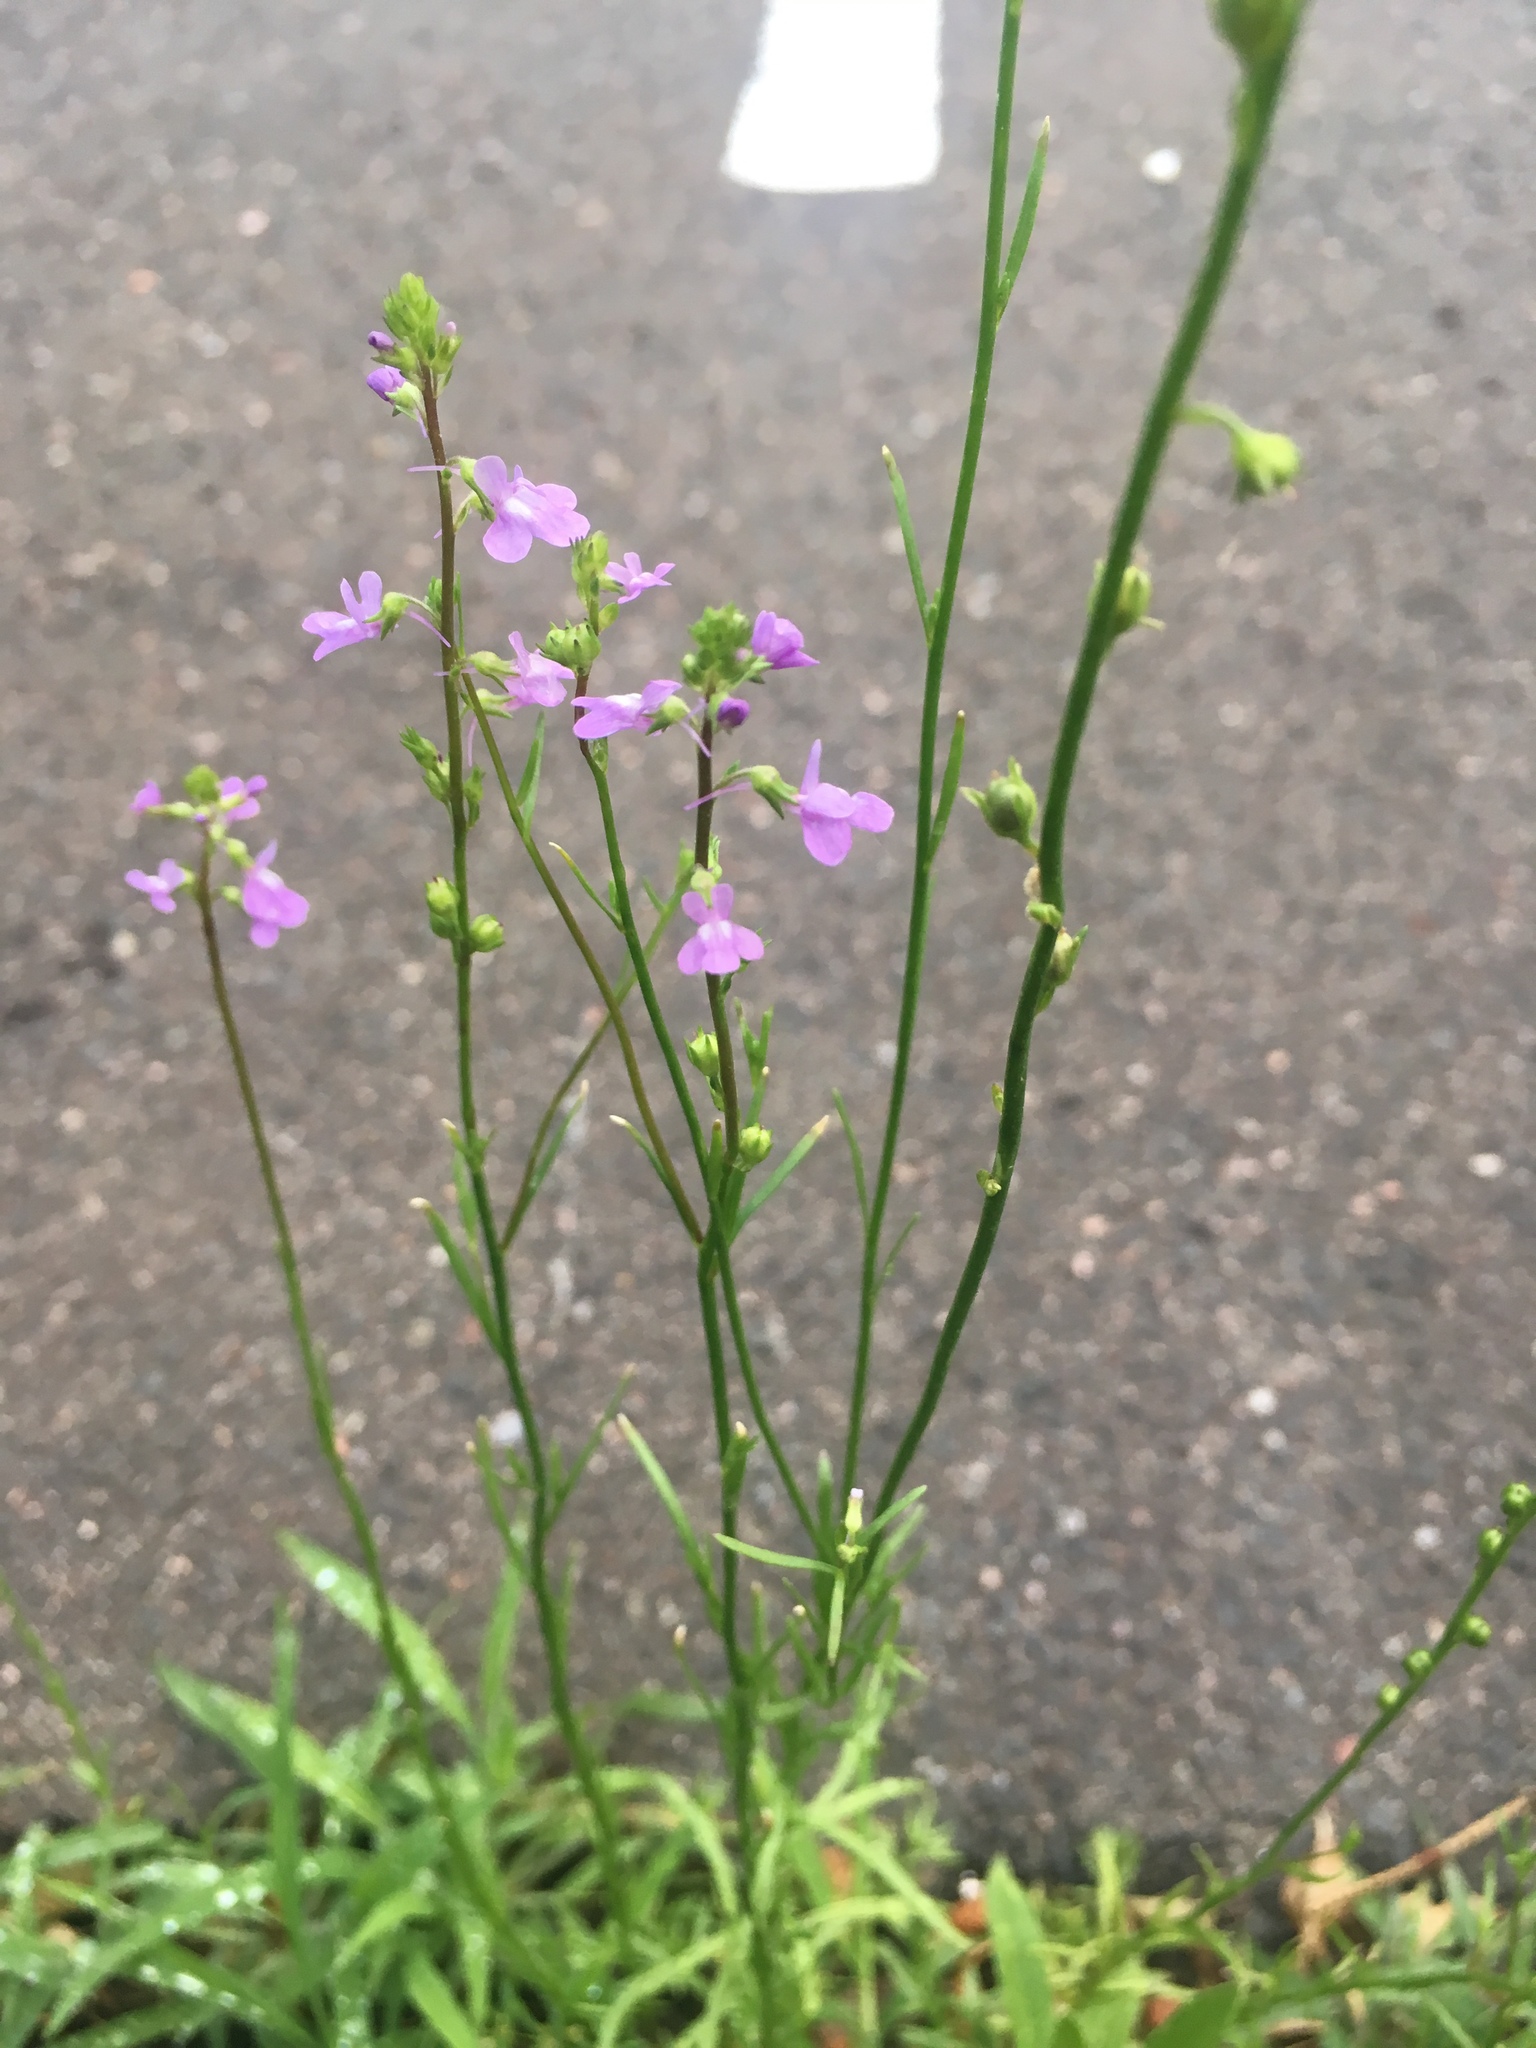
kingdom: Plantae
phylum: Tracheophyta
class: Magnoliopsida
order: Lamiales
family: Plantaginaceae
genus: Nuttallanthus
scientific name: Nuttallanthus canadensis
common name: Blue toadflax
